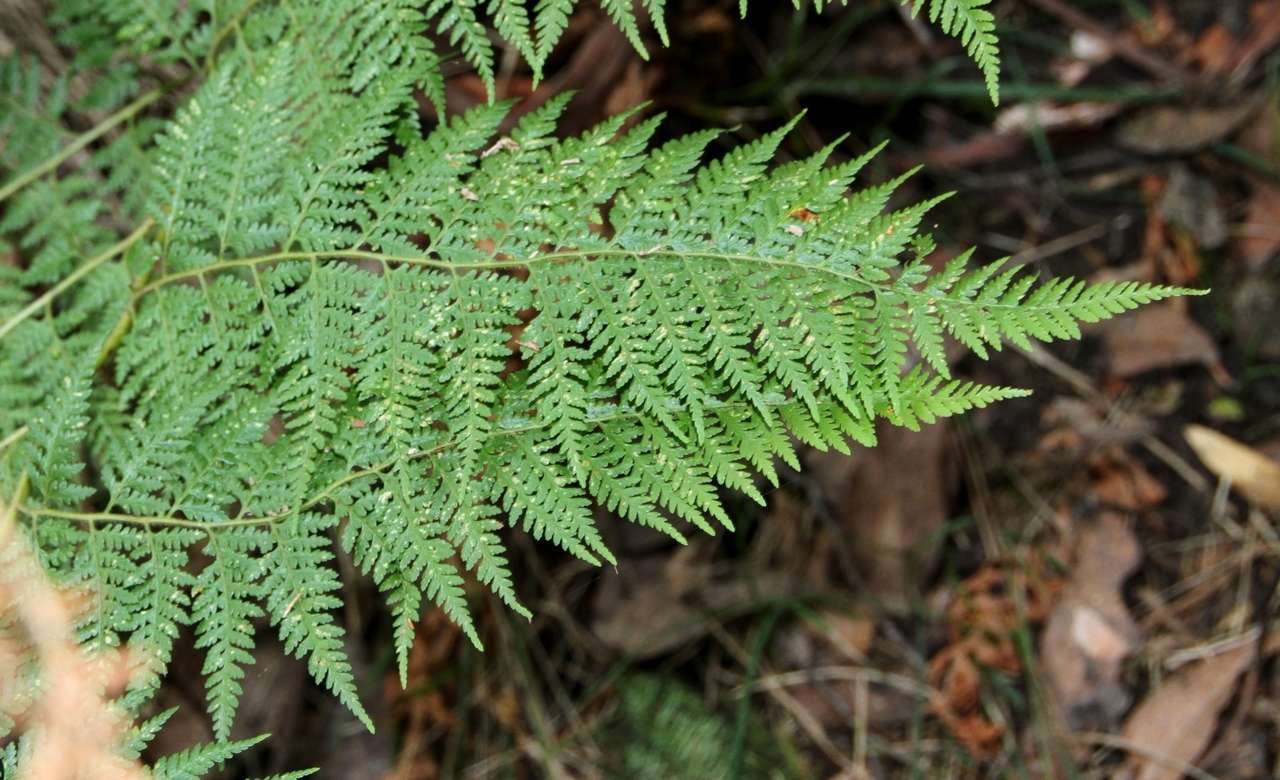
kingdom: Plantae
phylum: Tracheophyta
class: Polypodiopsida
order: Cyatheales
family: Dicksoniaceae
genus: Calochlaena
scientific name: Calochlaena dubia
